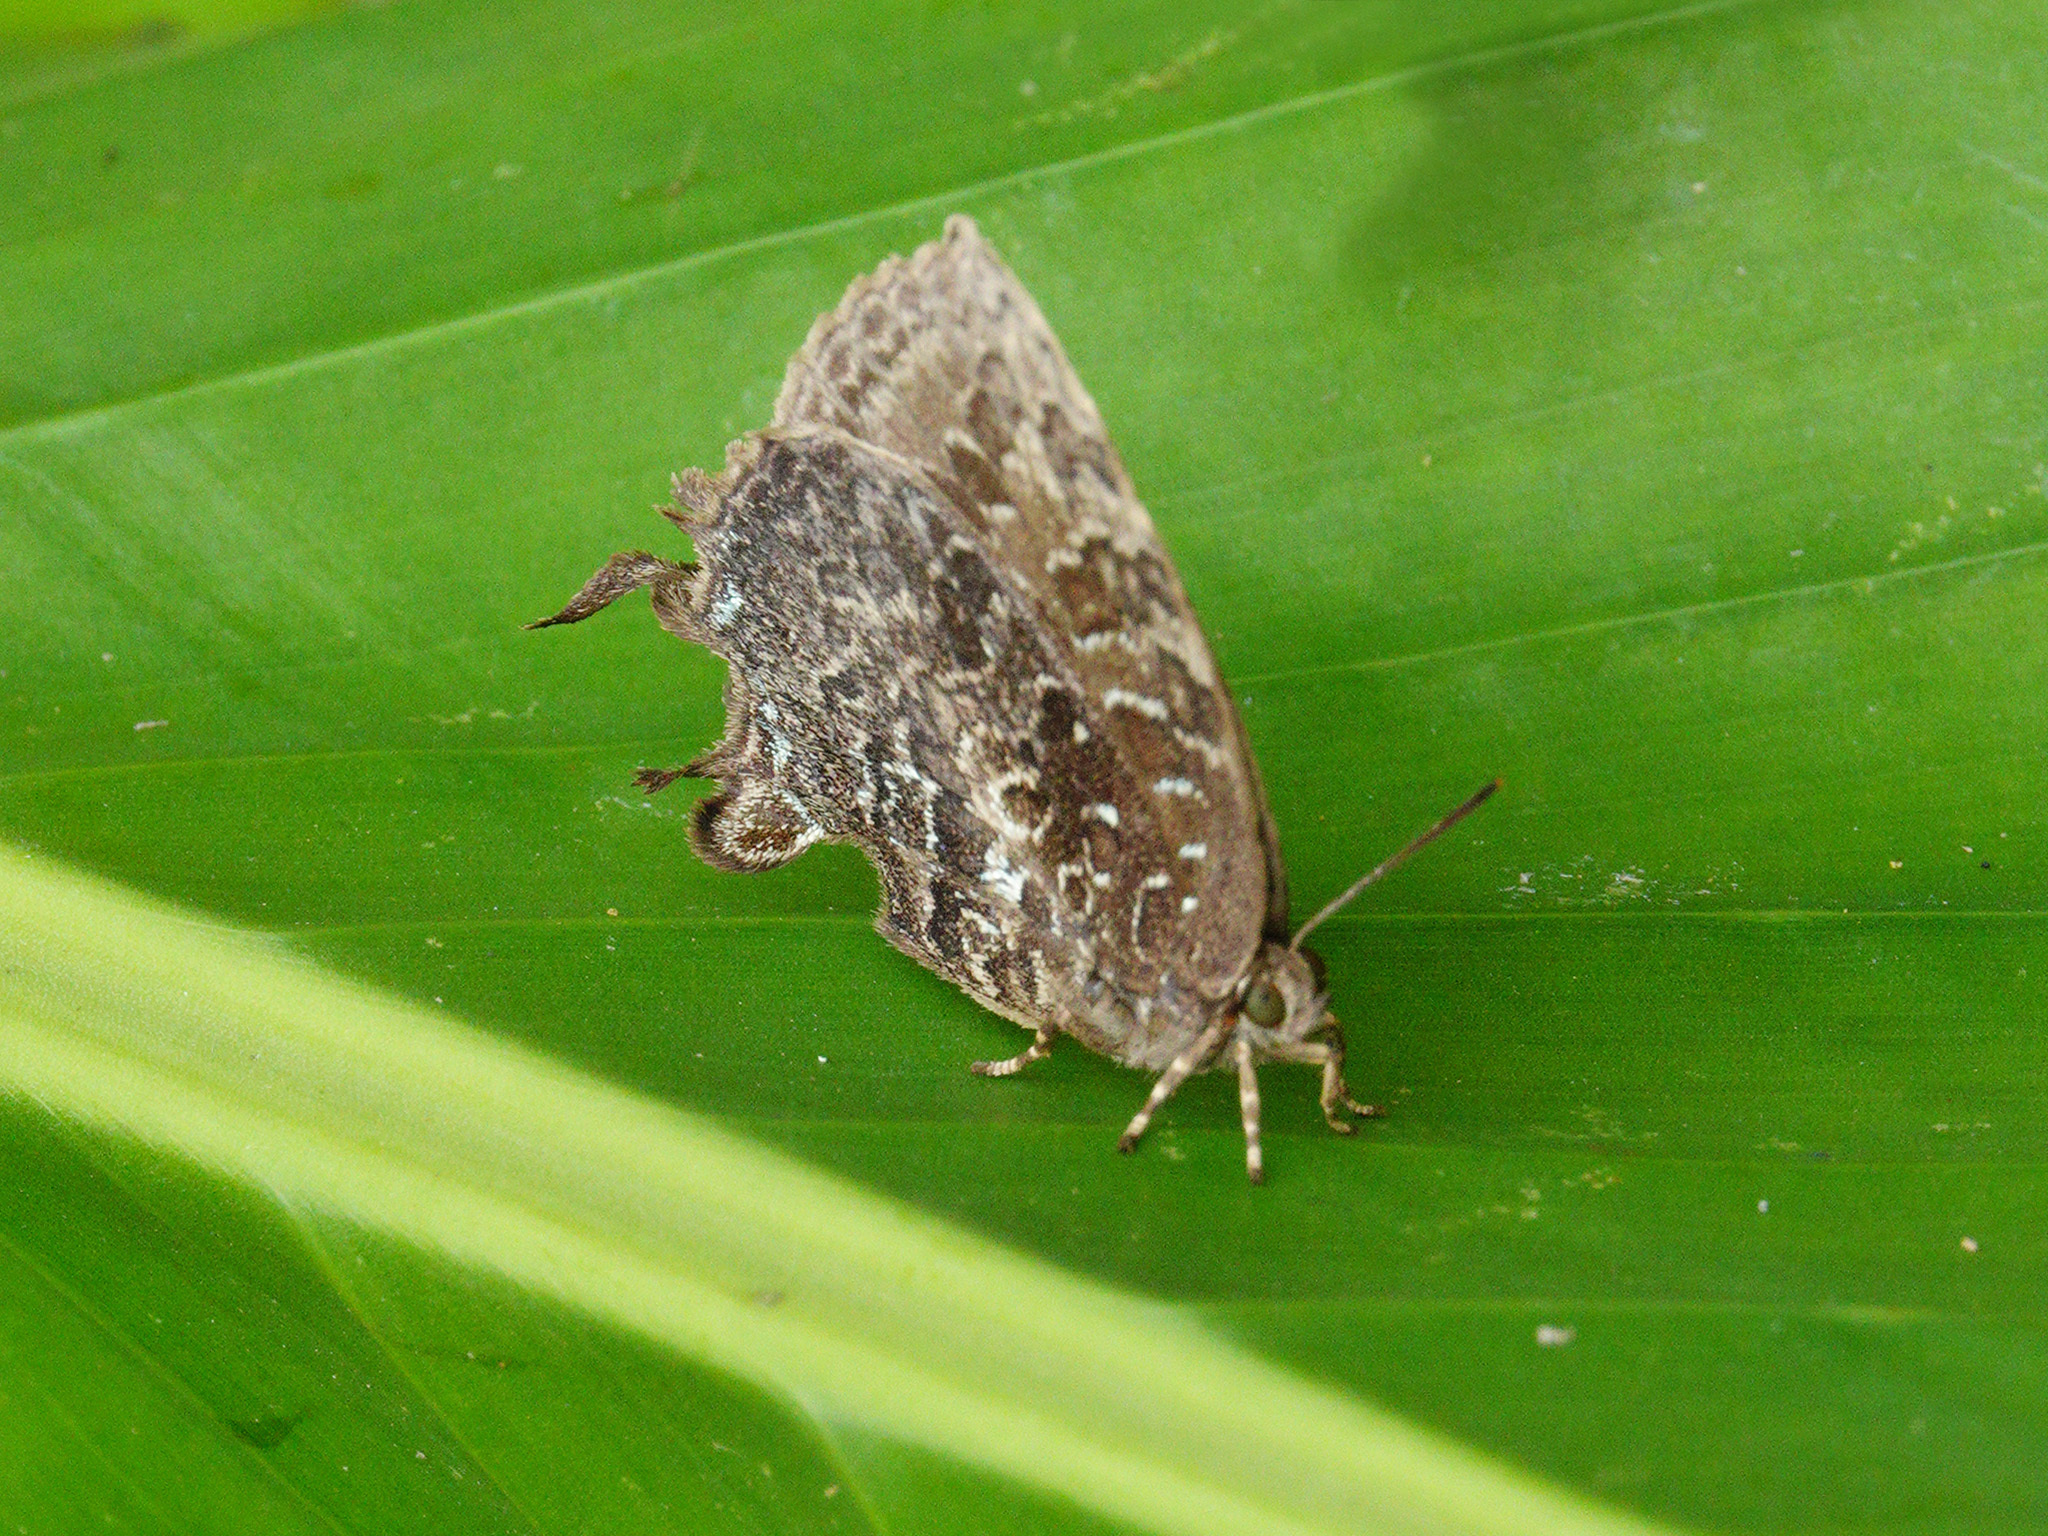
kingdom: Animalia
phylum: Arthropoda
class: Insecta
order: Lepidoptera
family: Lycaenidae
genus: Thaduka
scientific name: Thaduka multicaudata
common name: Many-tailed oakblue
